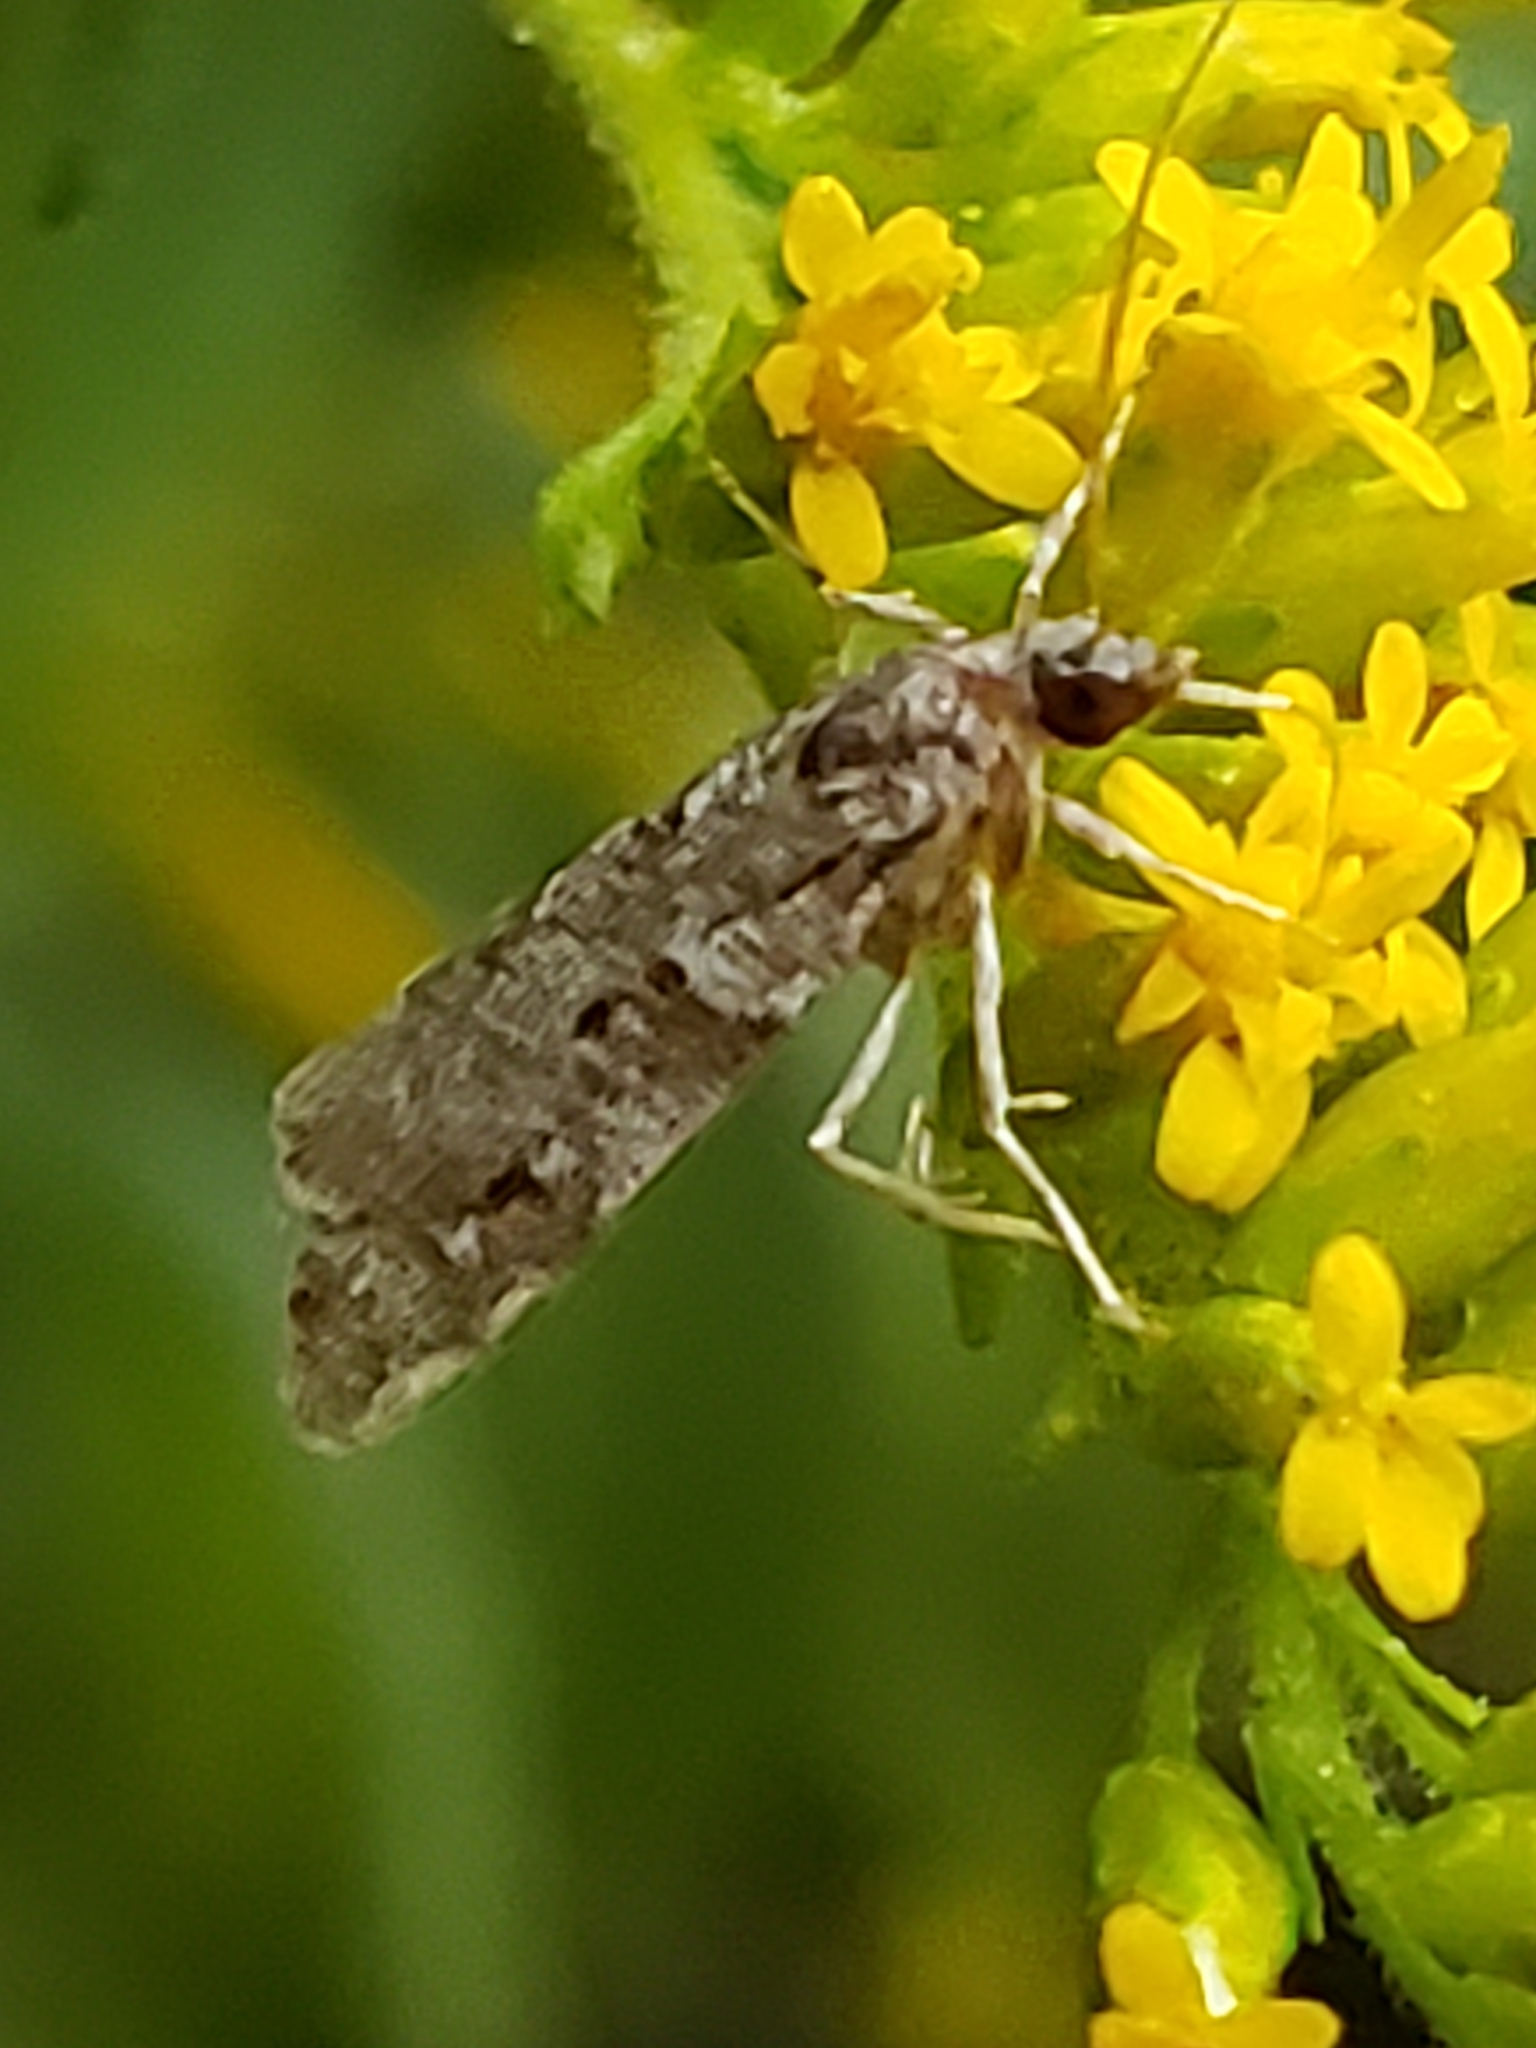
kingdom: Animalia
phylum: Arthropoda
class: Insecta
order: Lepidoptera
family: Crambidae
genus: Scoparia
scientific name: Scoparia biplagialis
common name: Double-striped scoparia moth
